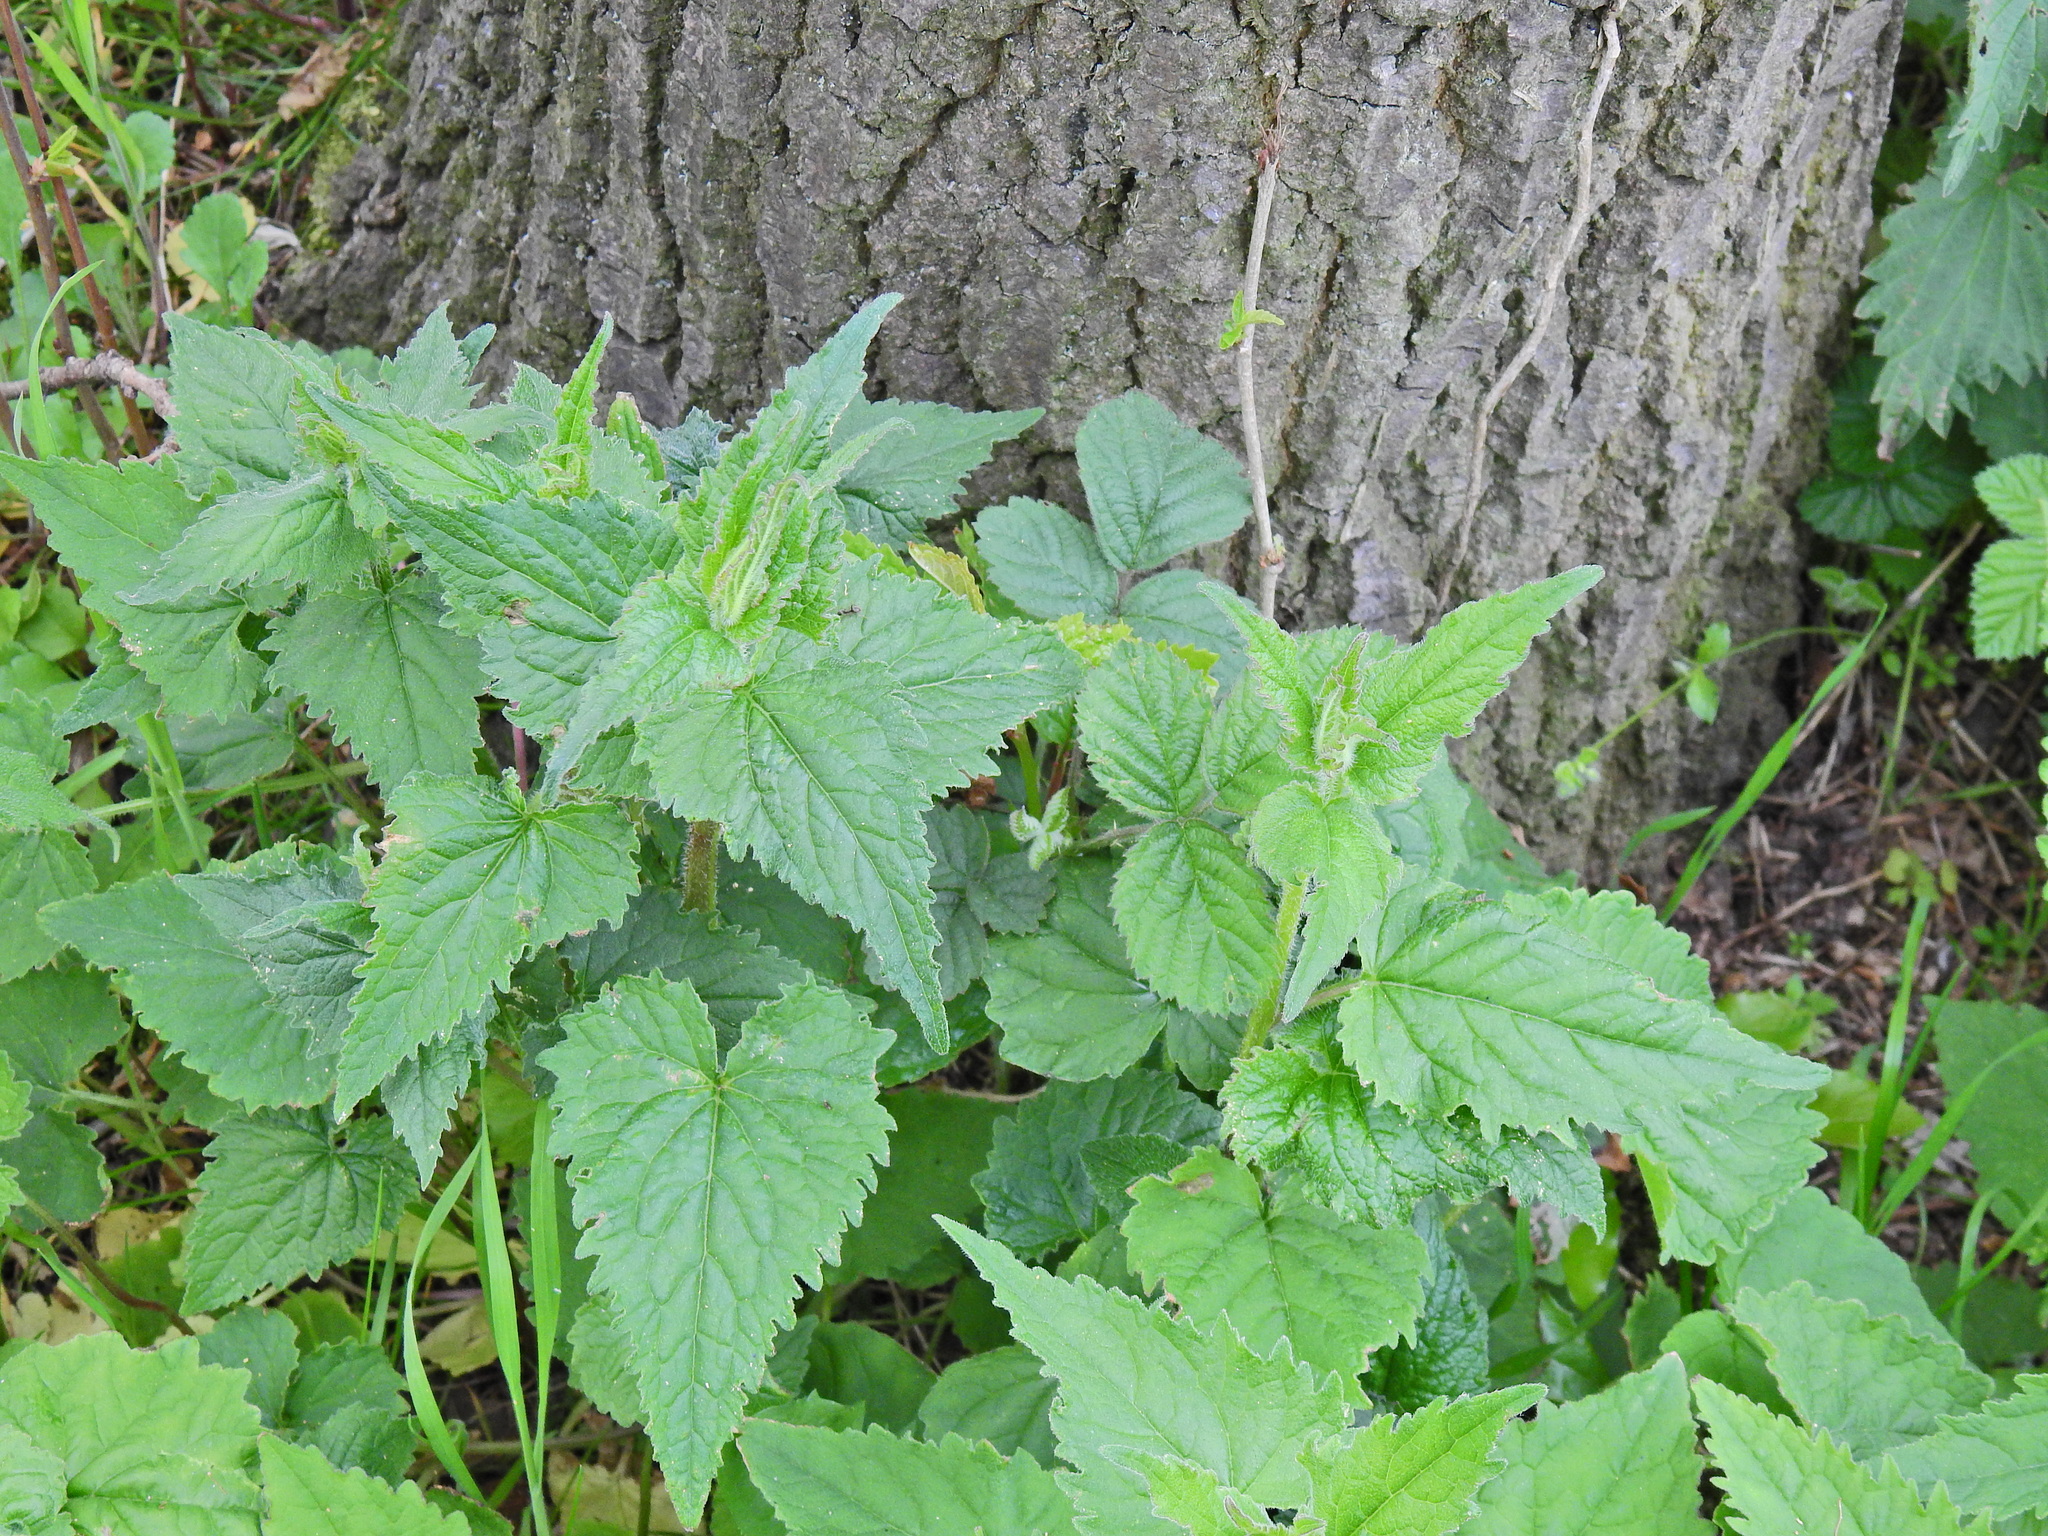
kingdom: Plantae
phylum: Tracheophyta
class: Magnoliopsida
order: Asterales
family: Campanulaceae
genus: Campanula
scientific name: Campanula trachelium
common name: Nettle-leaved bellflower
